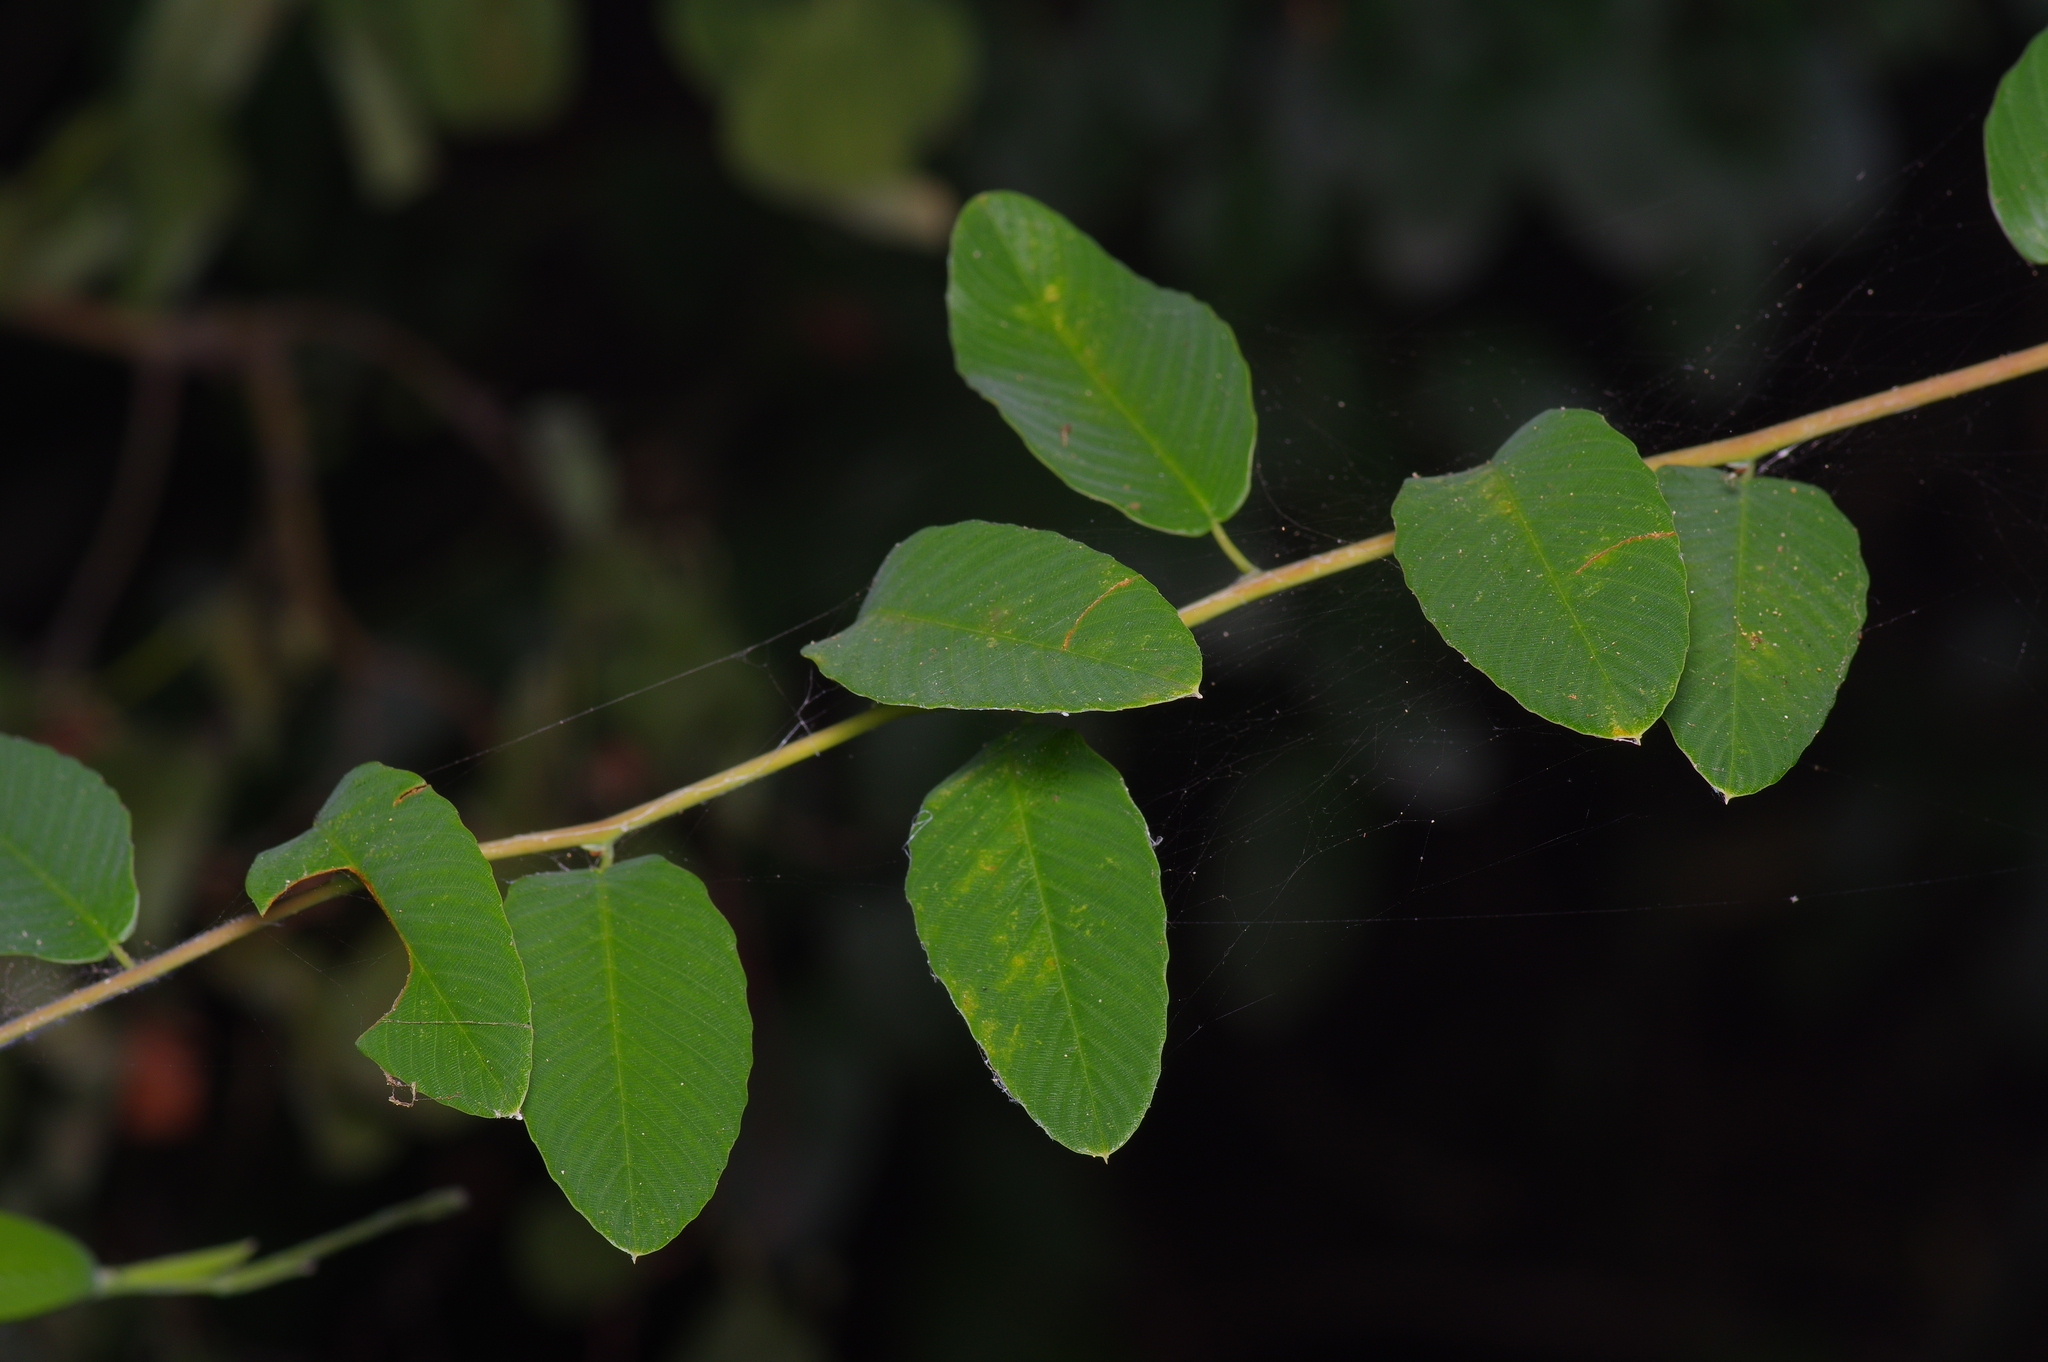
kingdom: Plantae
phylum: Tracheophyta
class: Magnoliopsida
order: Rosales
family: Rhamnaceae
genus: Berchemia
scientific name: Berchemia scandens
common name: Supplejack
